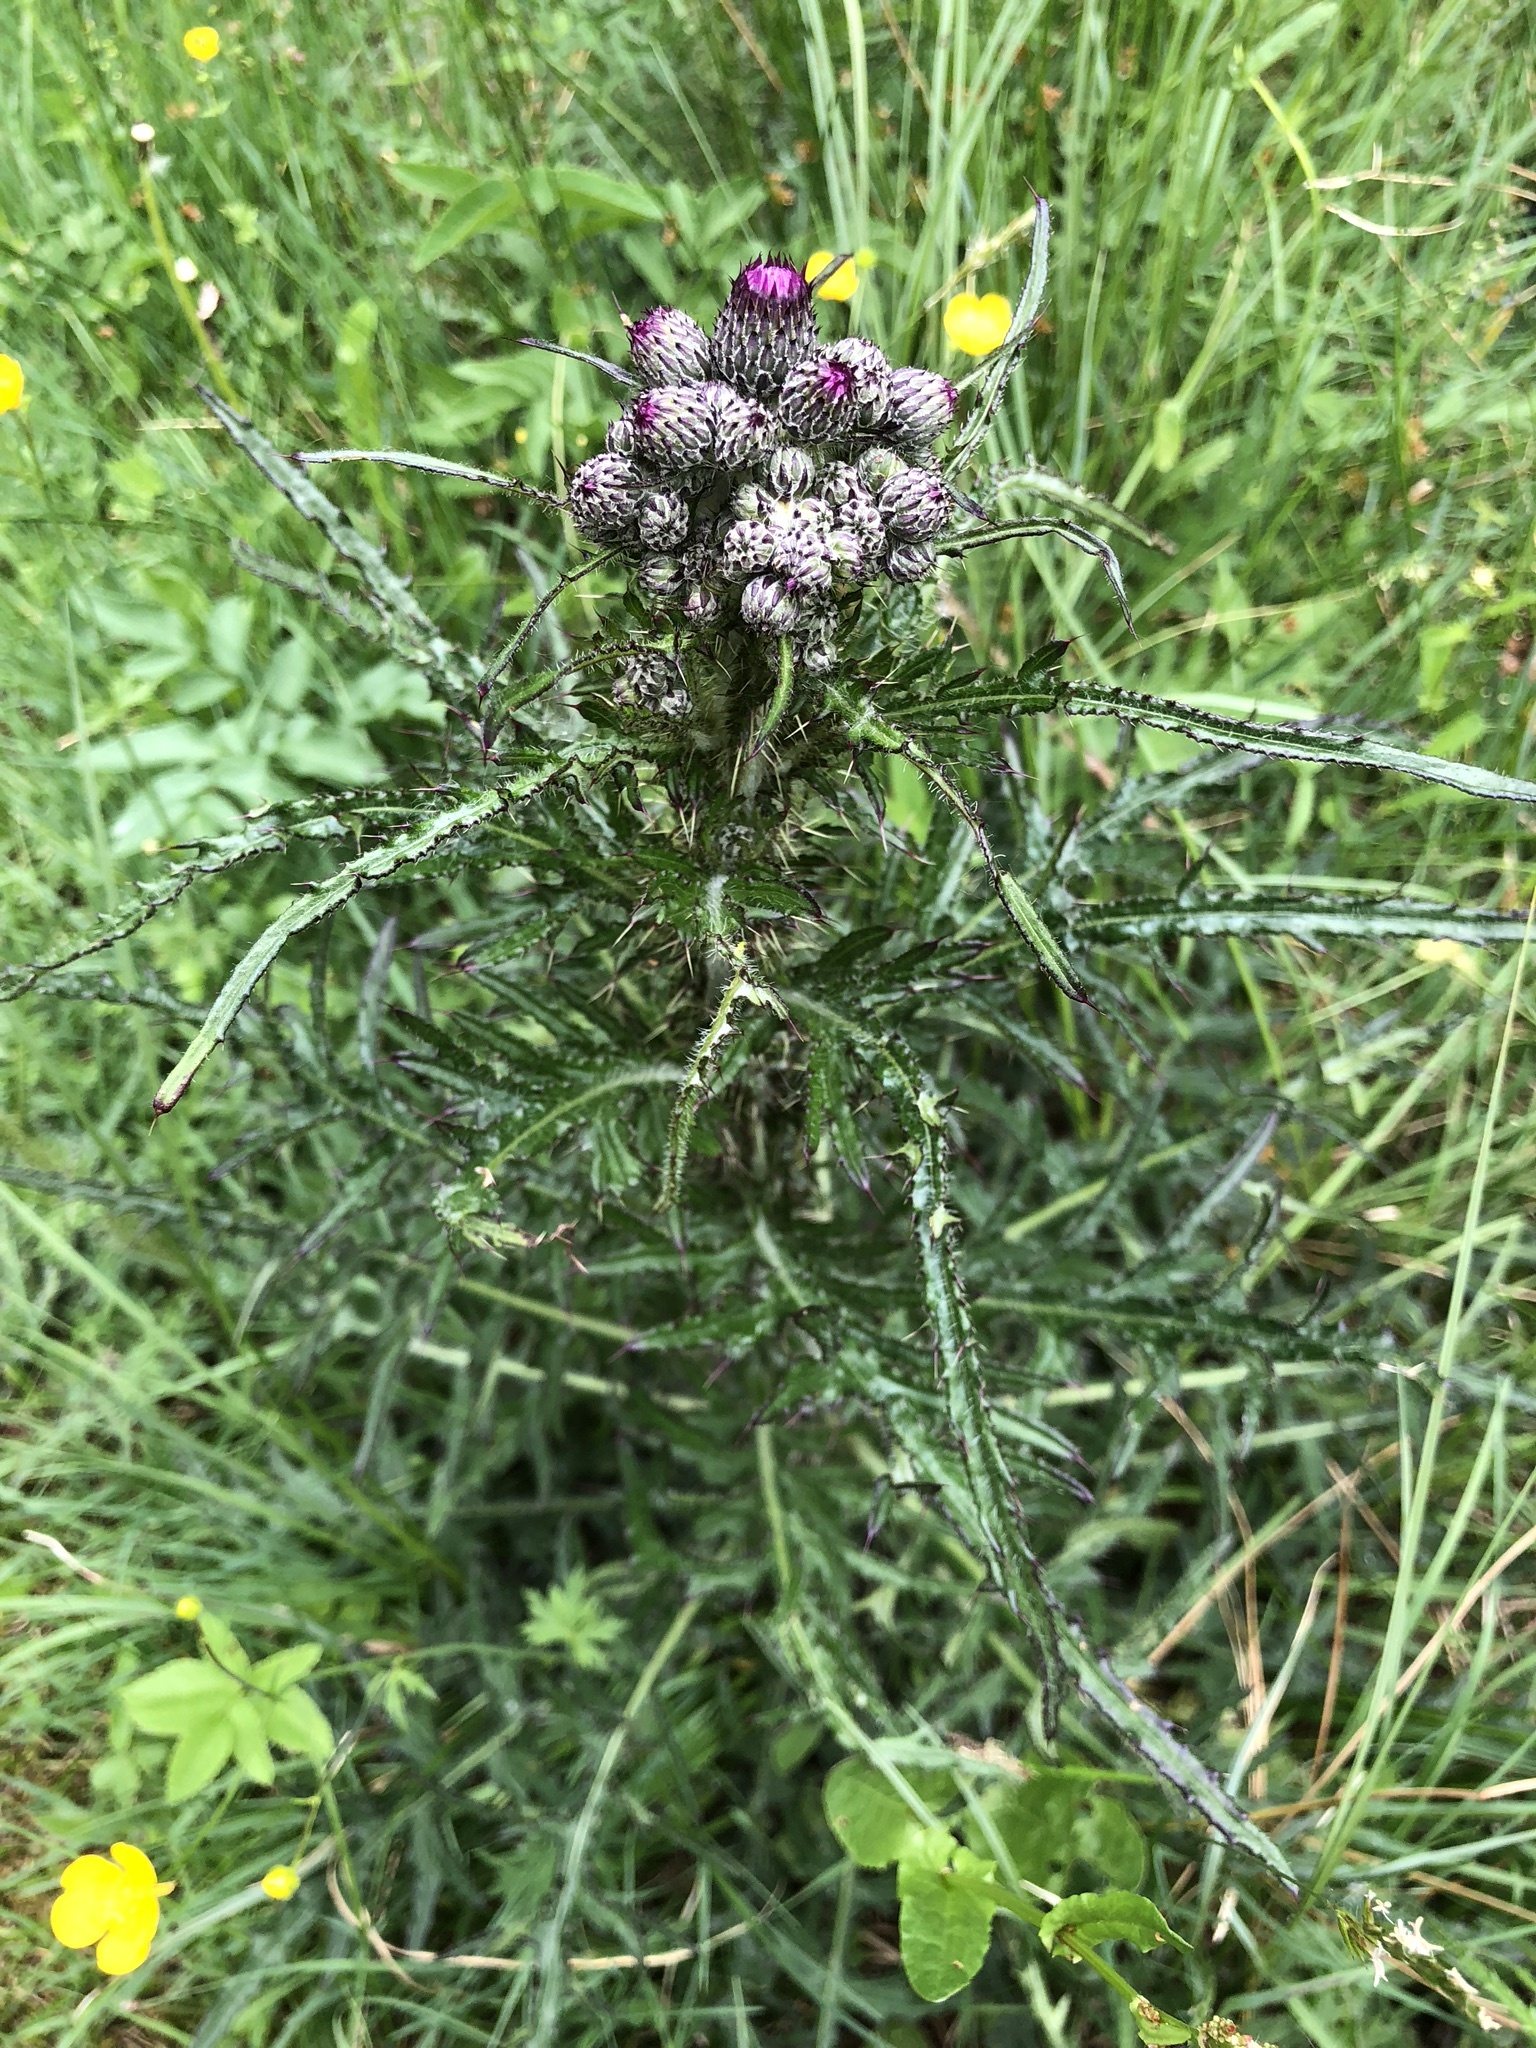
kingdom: Plantae
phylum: Tracheophyta
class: Magnoliopsida
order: Asterales
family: Asteraceae
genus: Cirsium
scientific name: Cirsium palustre
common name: Marsh thistle
